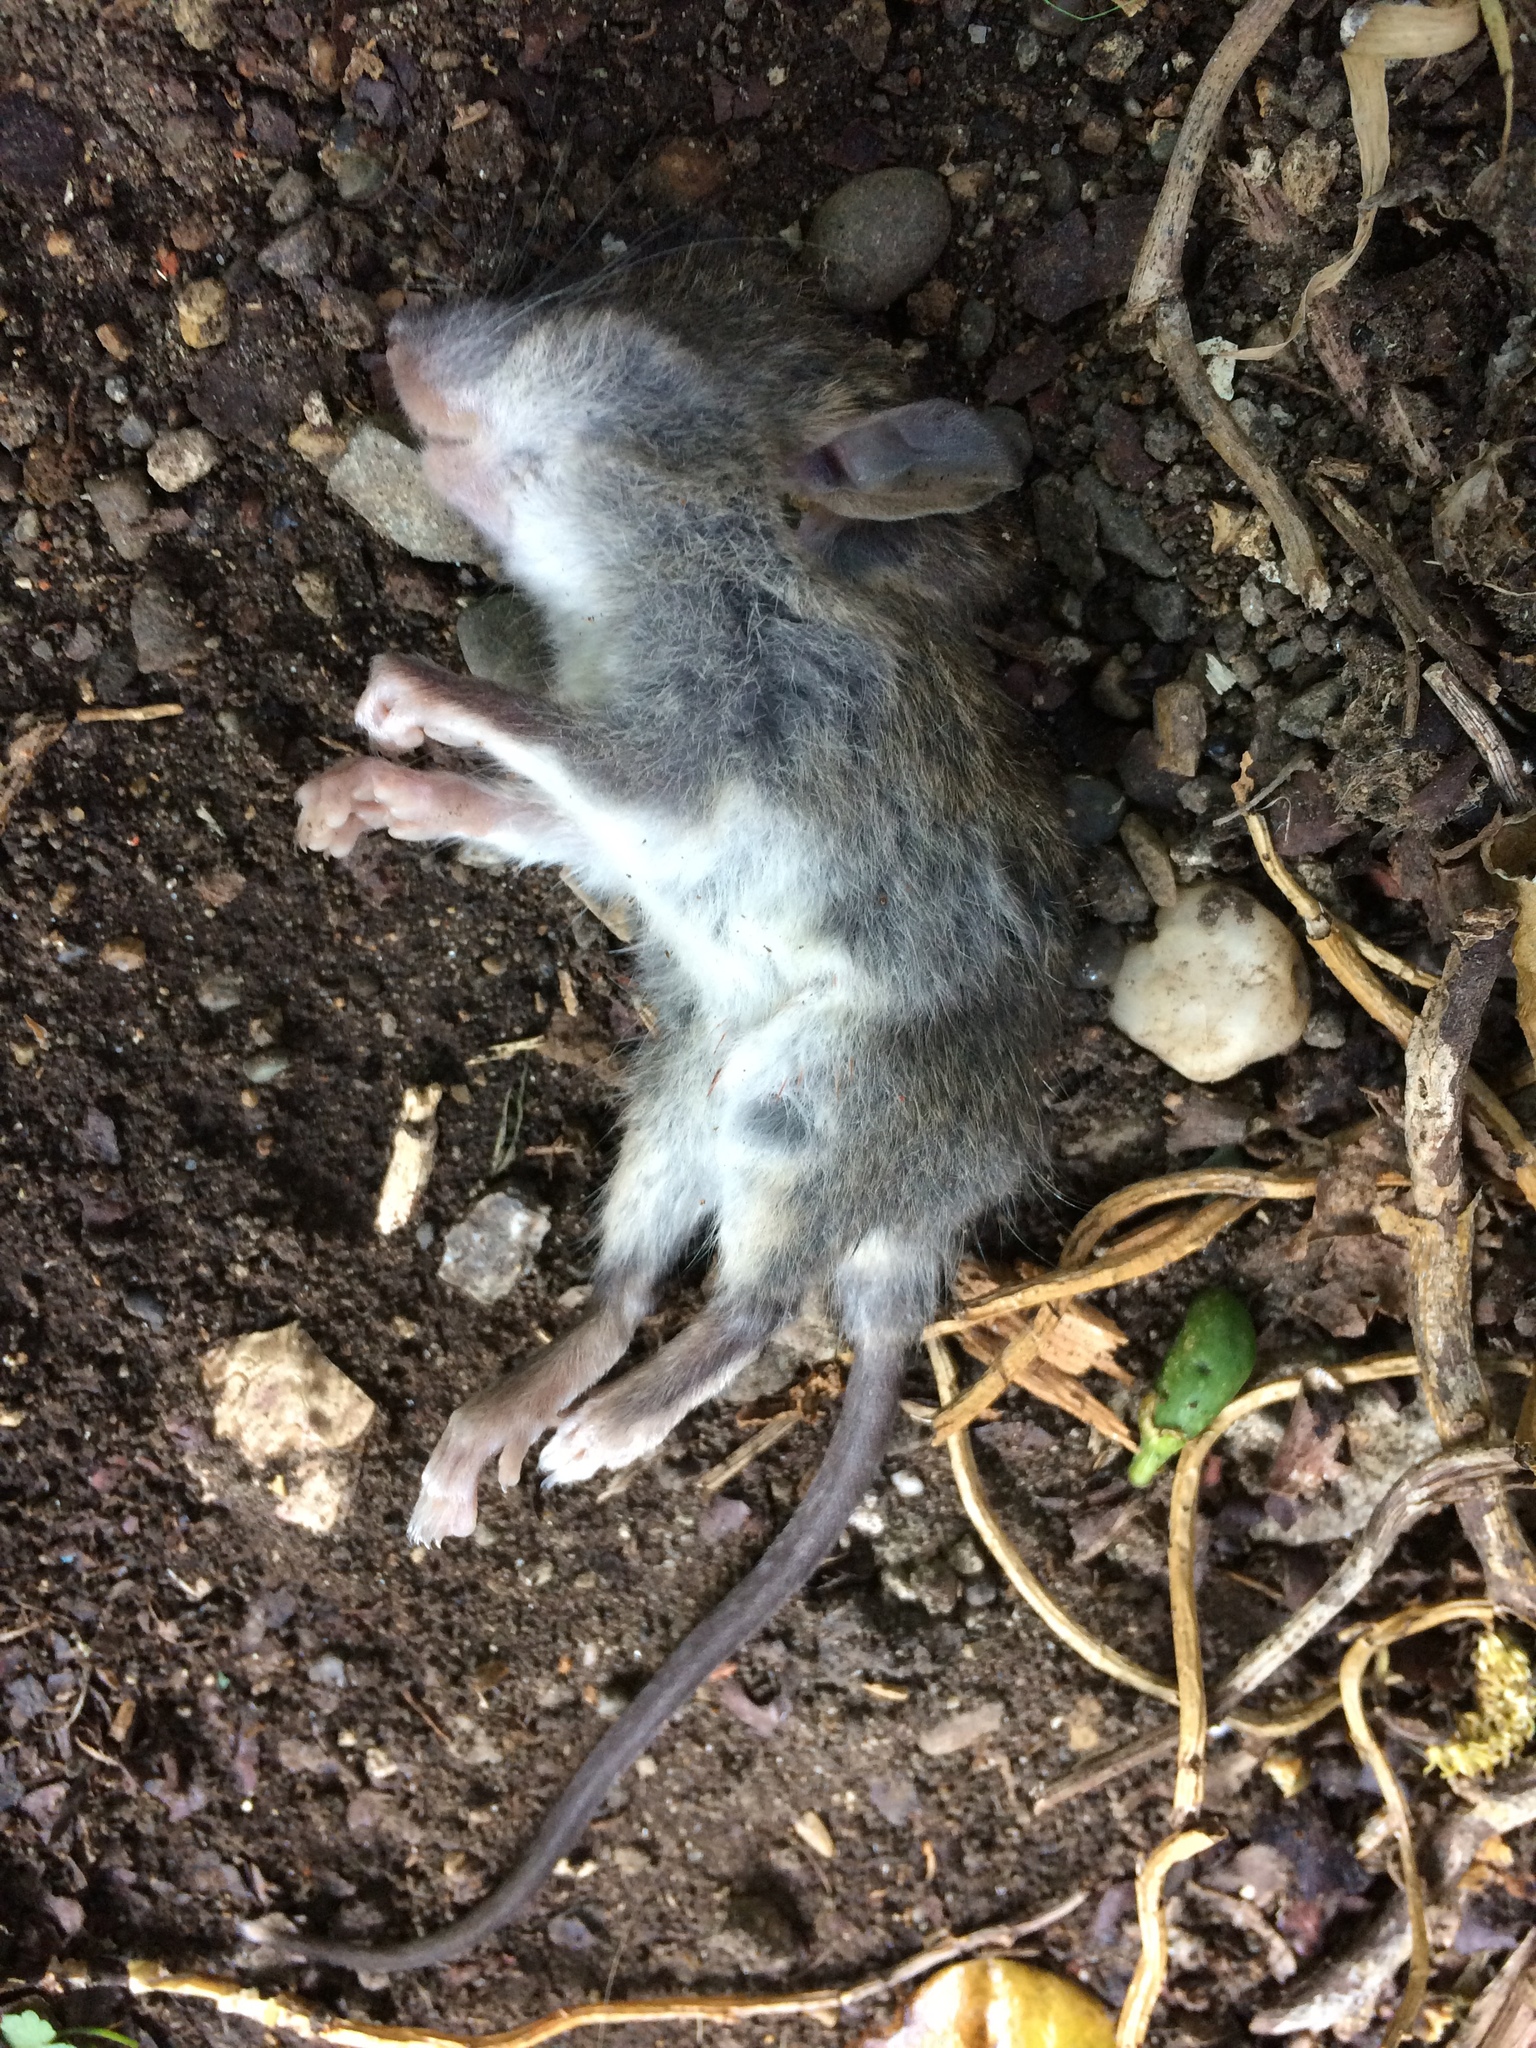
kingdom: Animalia
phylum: Chordata
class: Mammalia
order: Rodentia
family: Muridae
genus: Rattus
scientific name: Rattus rattus
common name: Black rat
